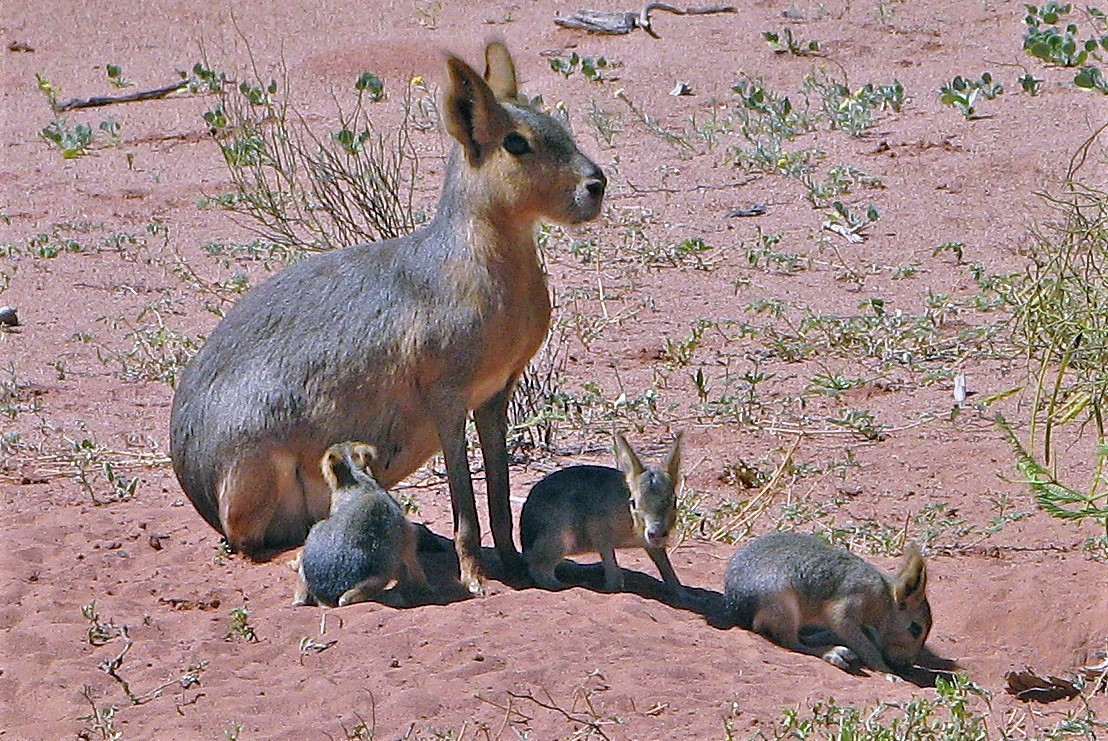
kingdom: Animalia
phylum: Chordata
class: Mammalia
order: Rodentia
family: Caviidae
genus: Dolichotis
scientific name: Dolichotis patagonum
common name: Patagonian mara
